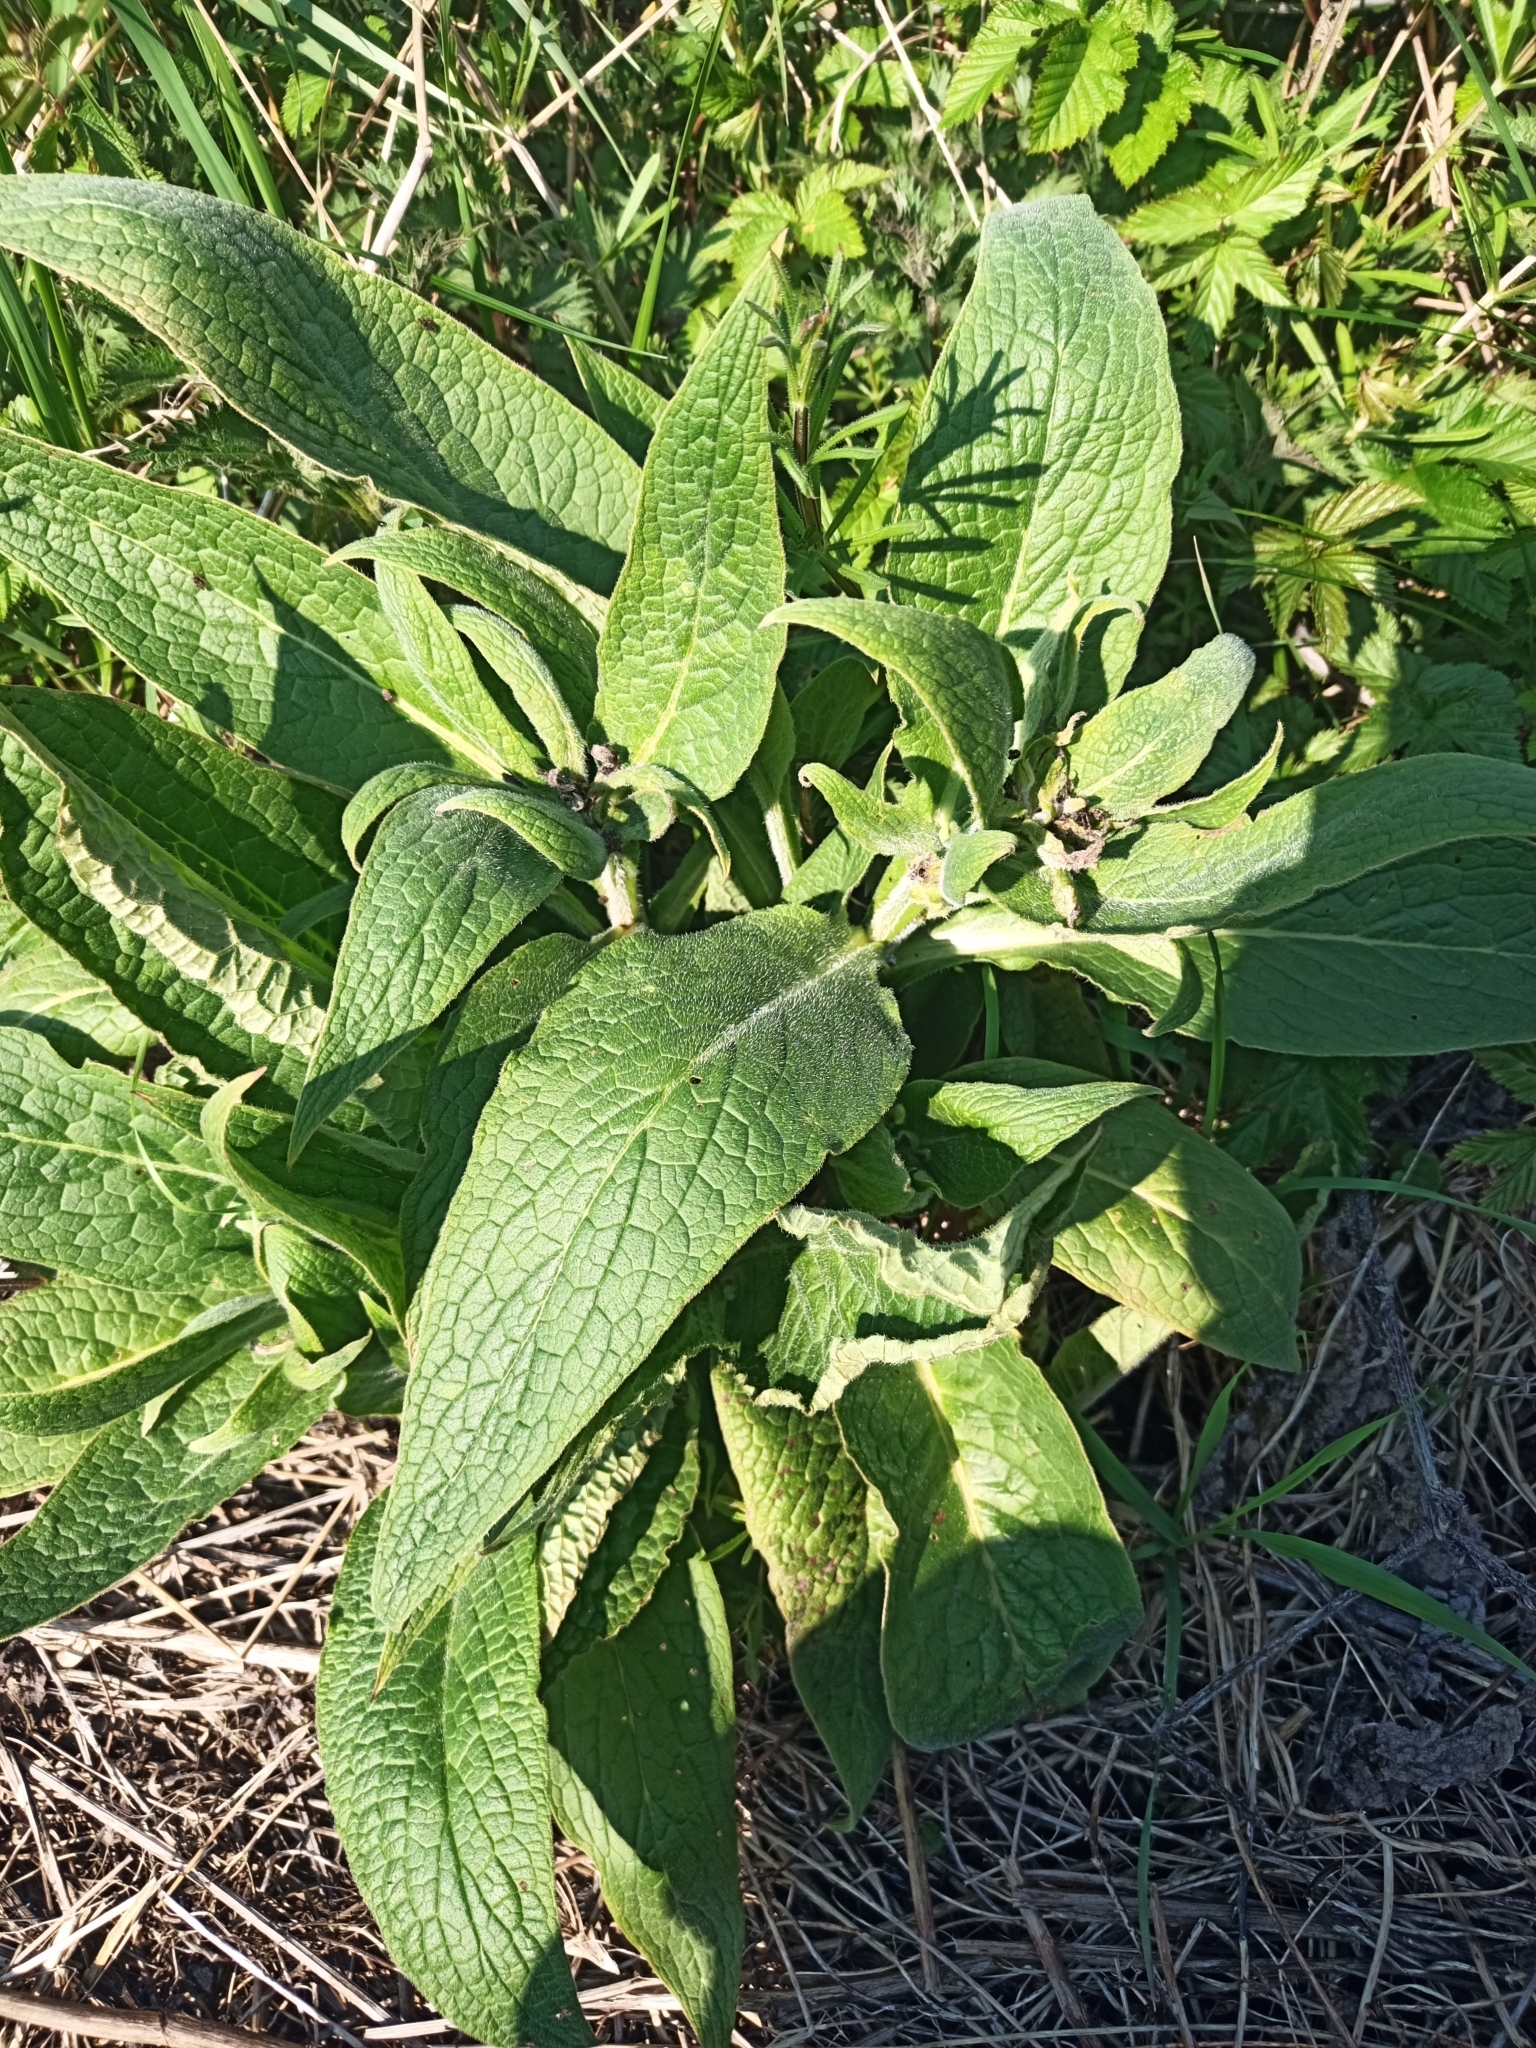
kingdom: Plantae
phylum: Tracheophyta
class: Magnoliopsida
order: Boraginales
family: Boraginaceae
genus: Symphytum
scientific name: Symphytum officinale
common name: Common comfrey
